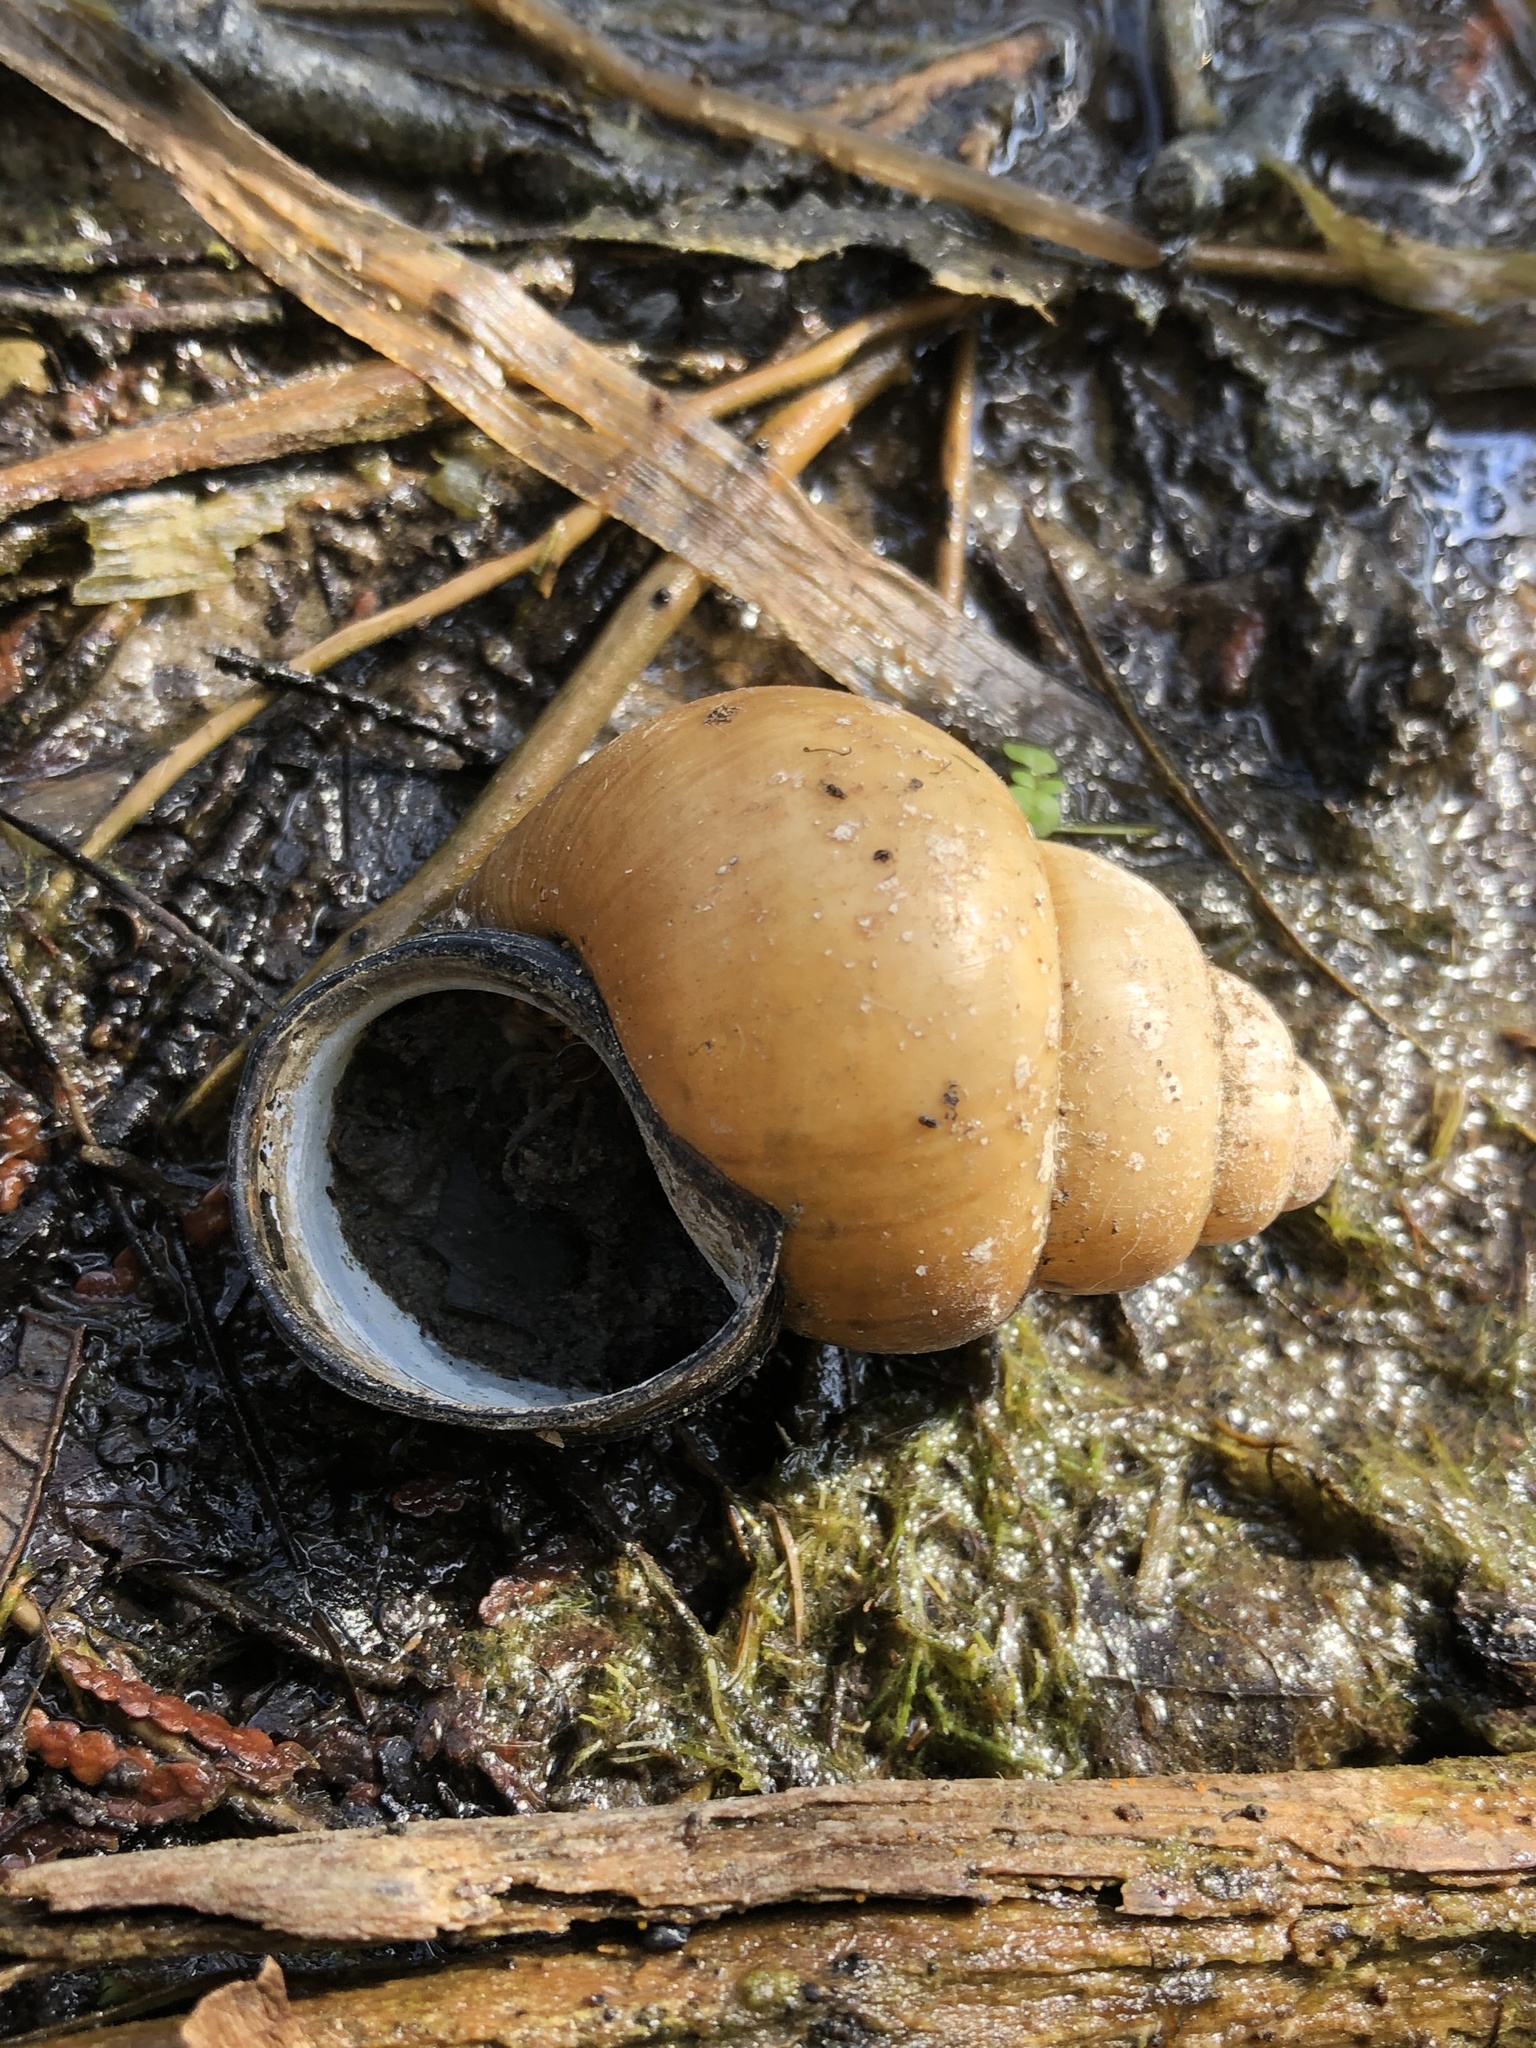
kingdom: Animalia
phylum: Mollusca
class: Gastropoda
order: Architaenioglossa
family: Viviparidae
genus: Cipangopaludina
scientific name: Cipangopaludina chinensis
